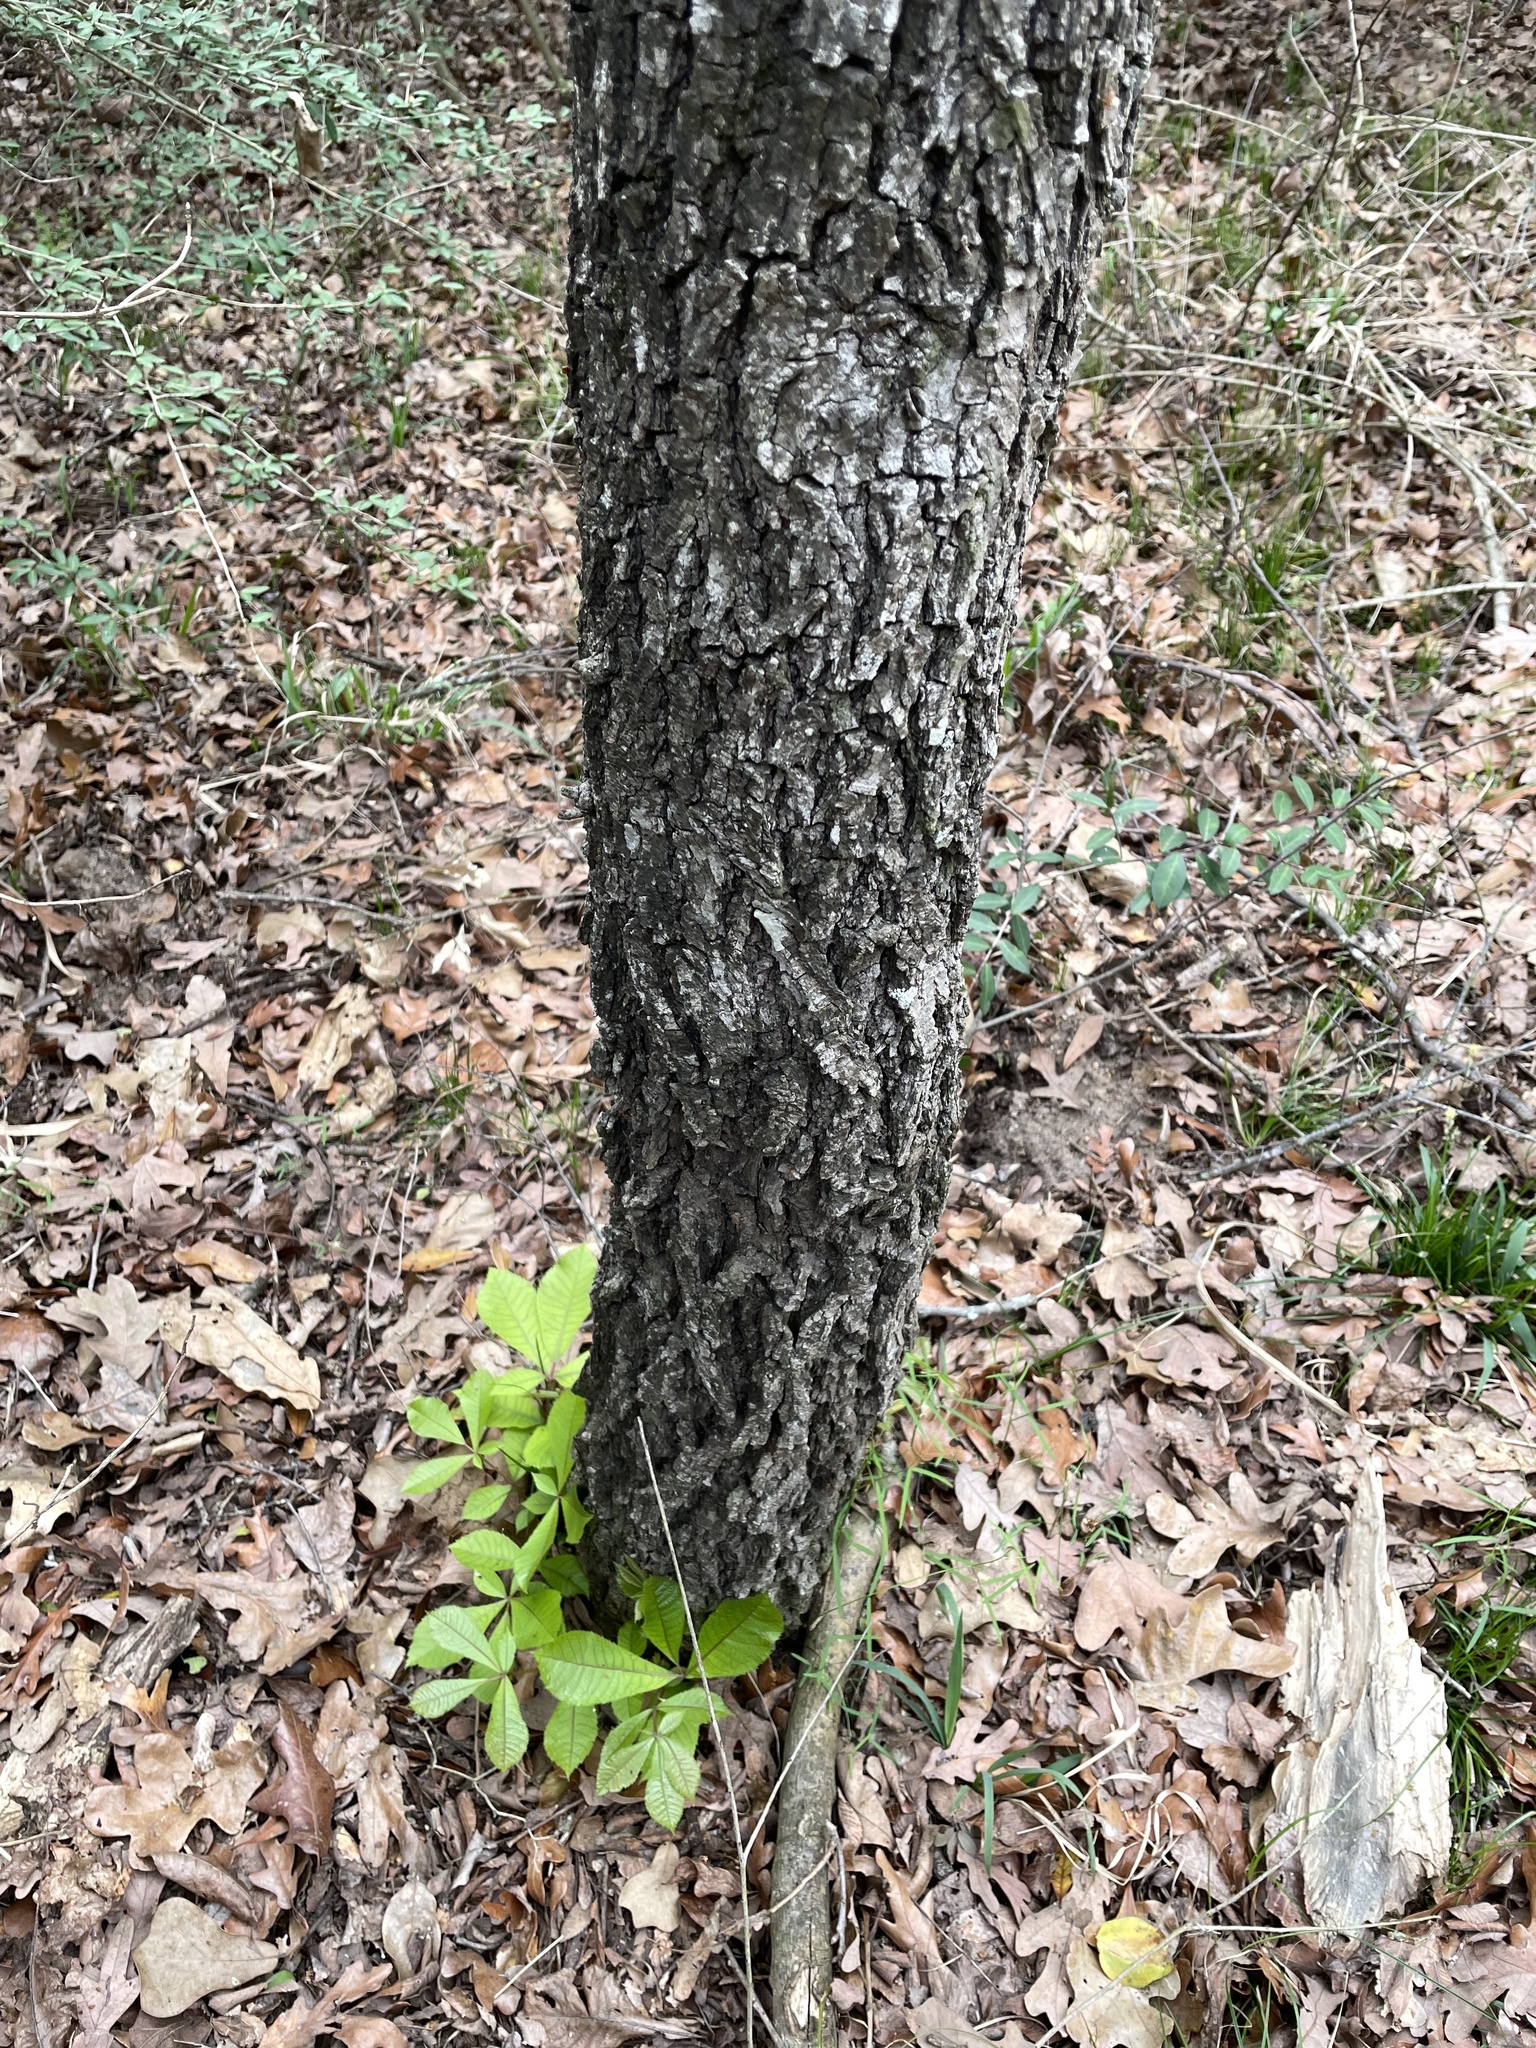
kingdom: Plantae
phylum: Tracheophyta
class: Magnoliopsida
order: Fagales
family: Juglandaceae
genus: Carya
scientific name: Carya texana
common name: Black hickory
